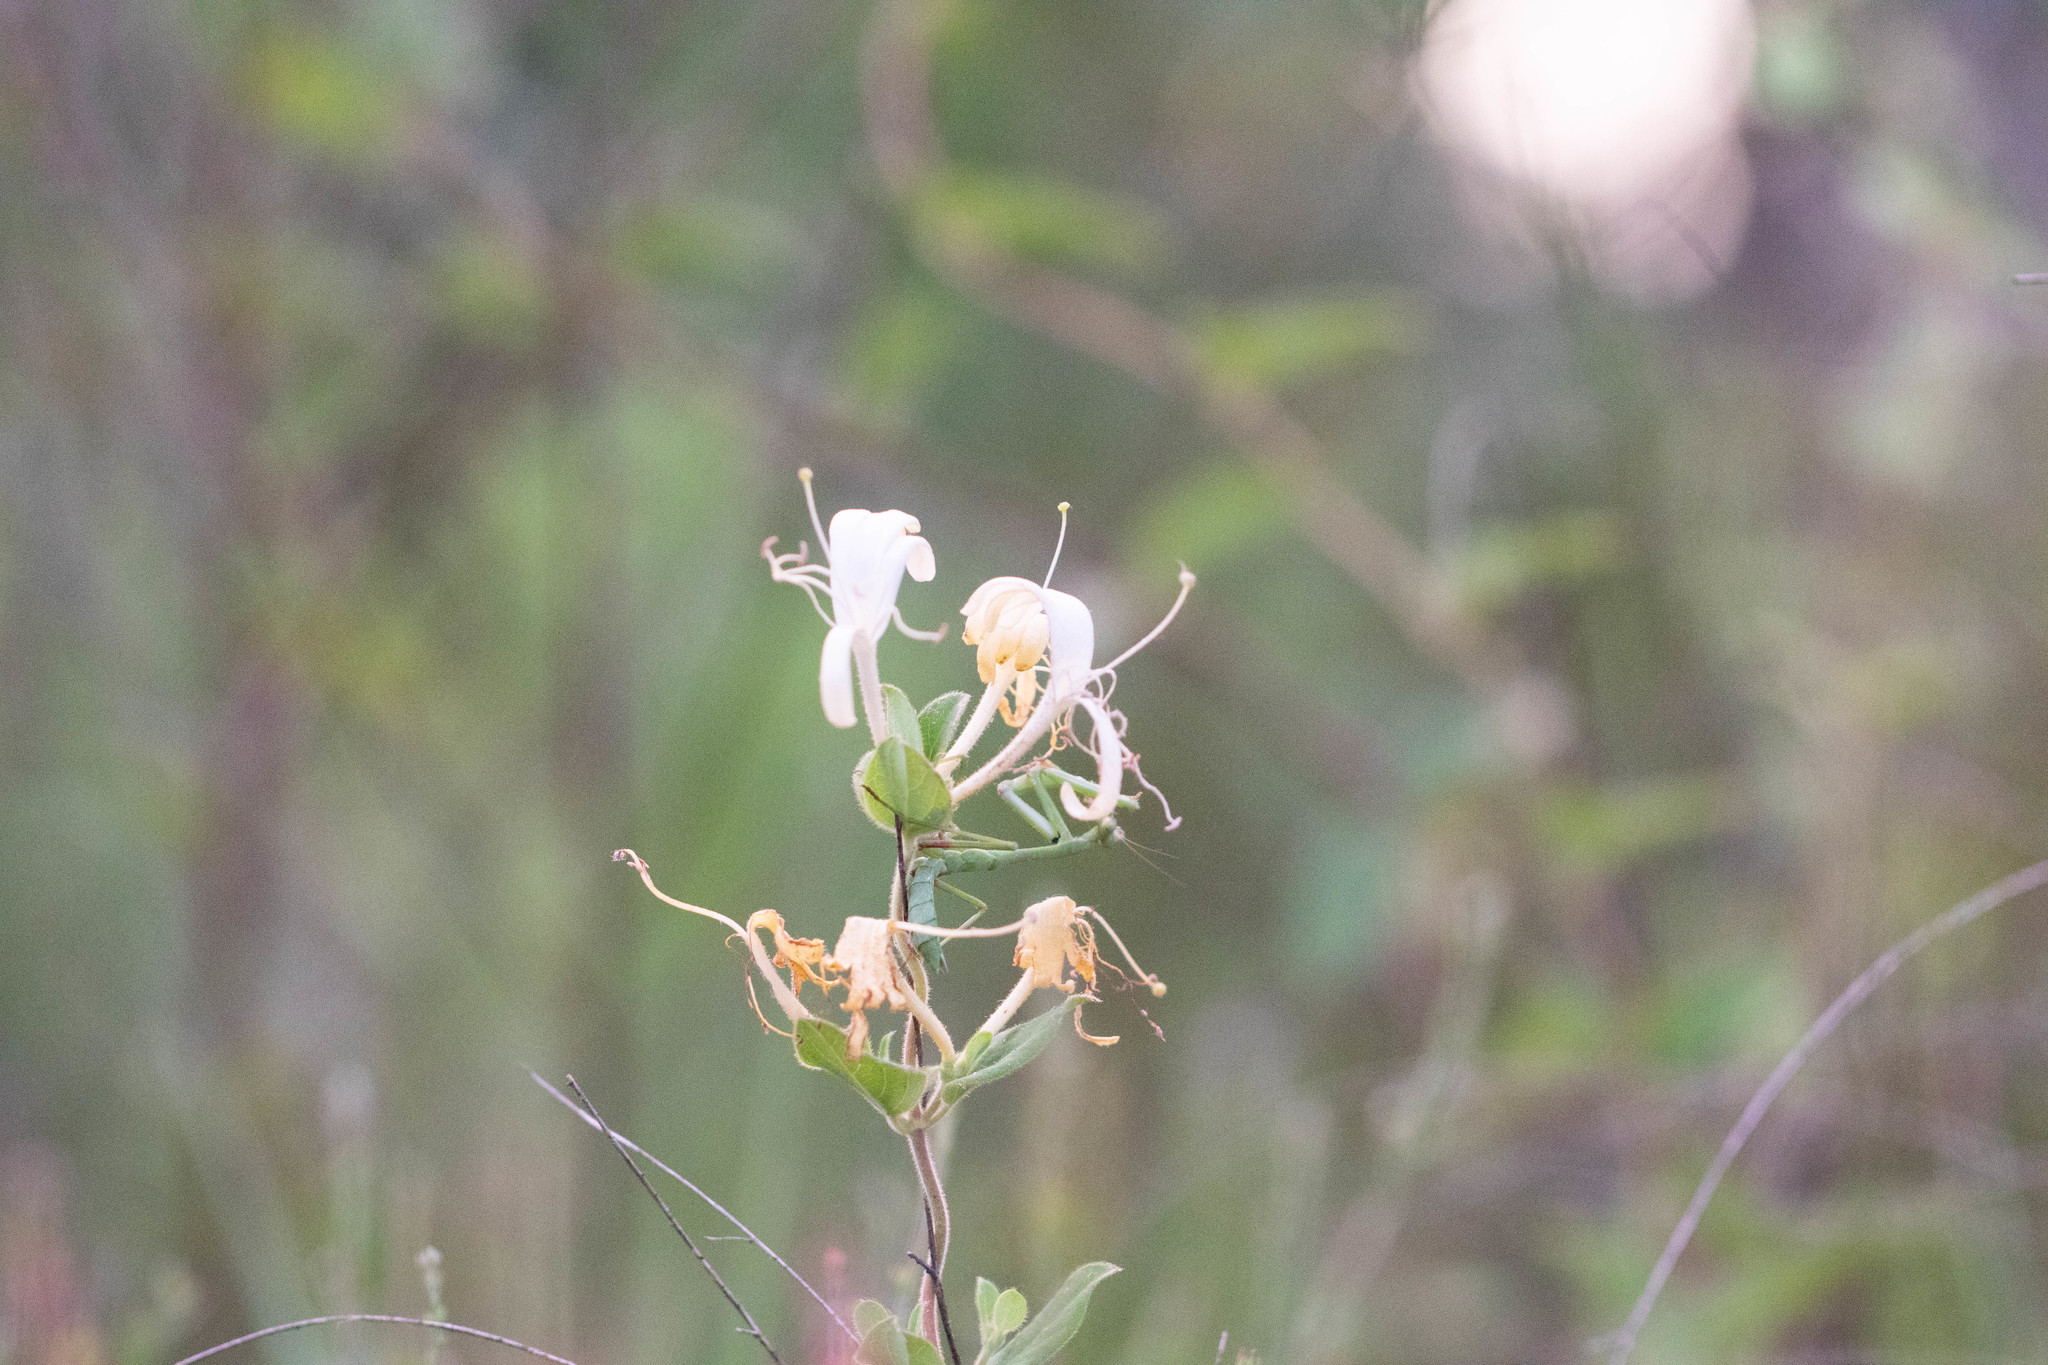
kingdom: Plantae
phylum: Tracheophyta
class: Magnoliopsida
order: Dipsacales
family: Caprifoliaceae
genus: Lonicera
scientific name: Lonicera japonica
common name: Japanese honeysuckle
